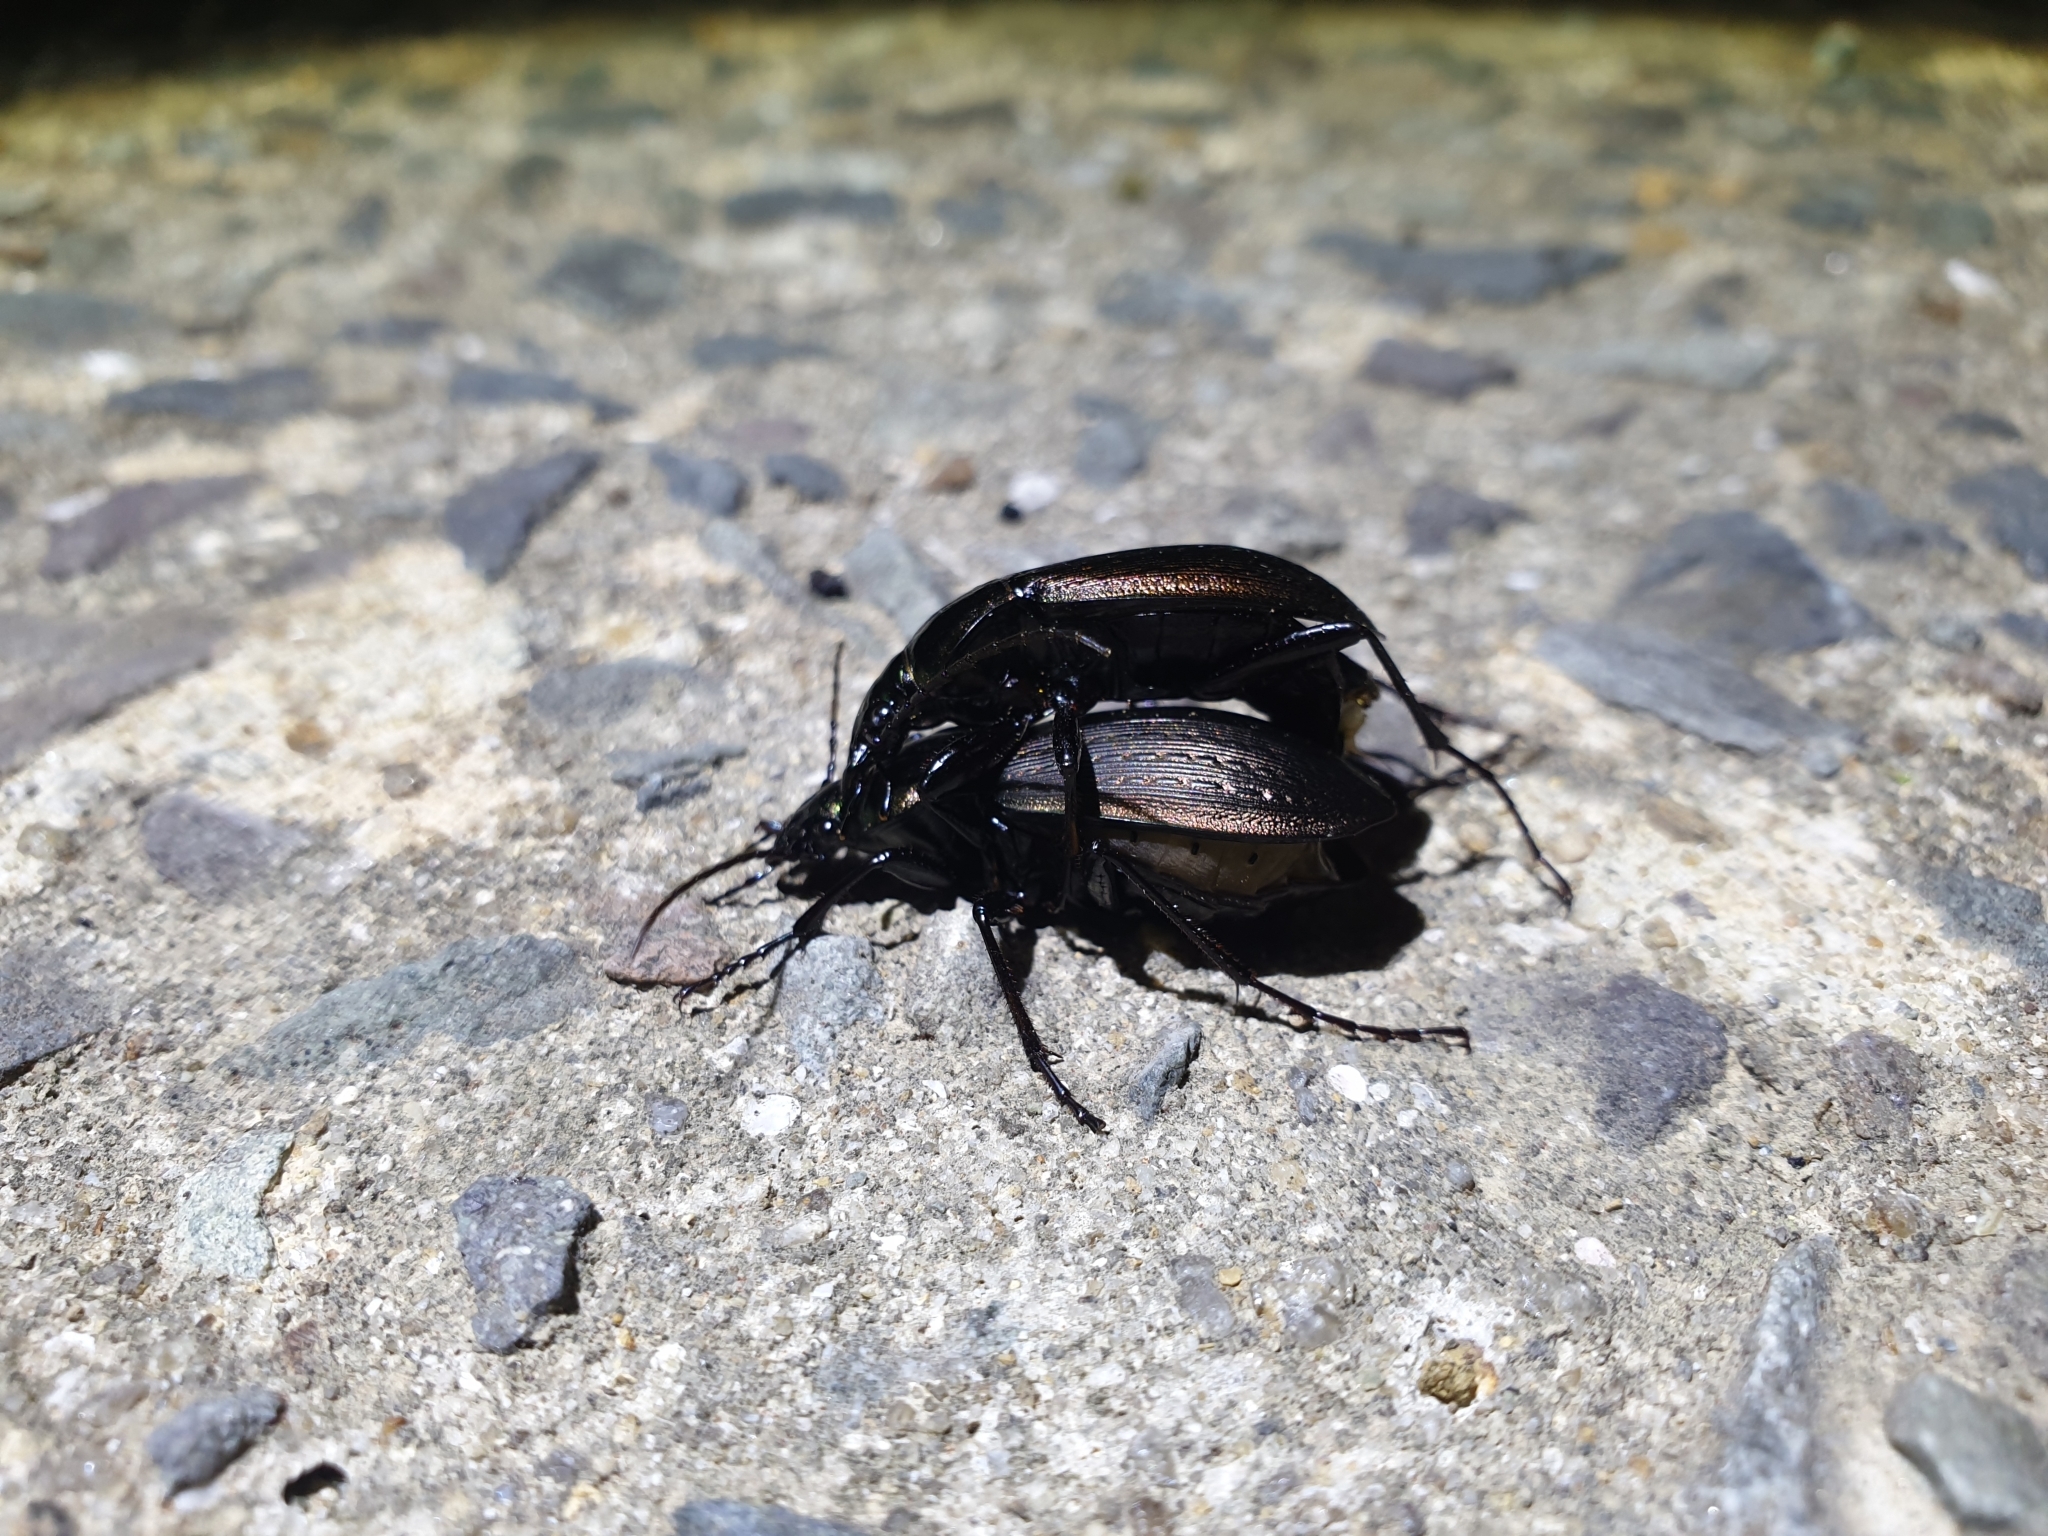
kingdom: Animalia
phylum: Arthropoda
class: Insecta
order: Coleoptera
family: Carabidae
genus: Carabus
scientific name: Carabus sternbergi
